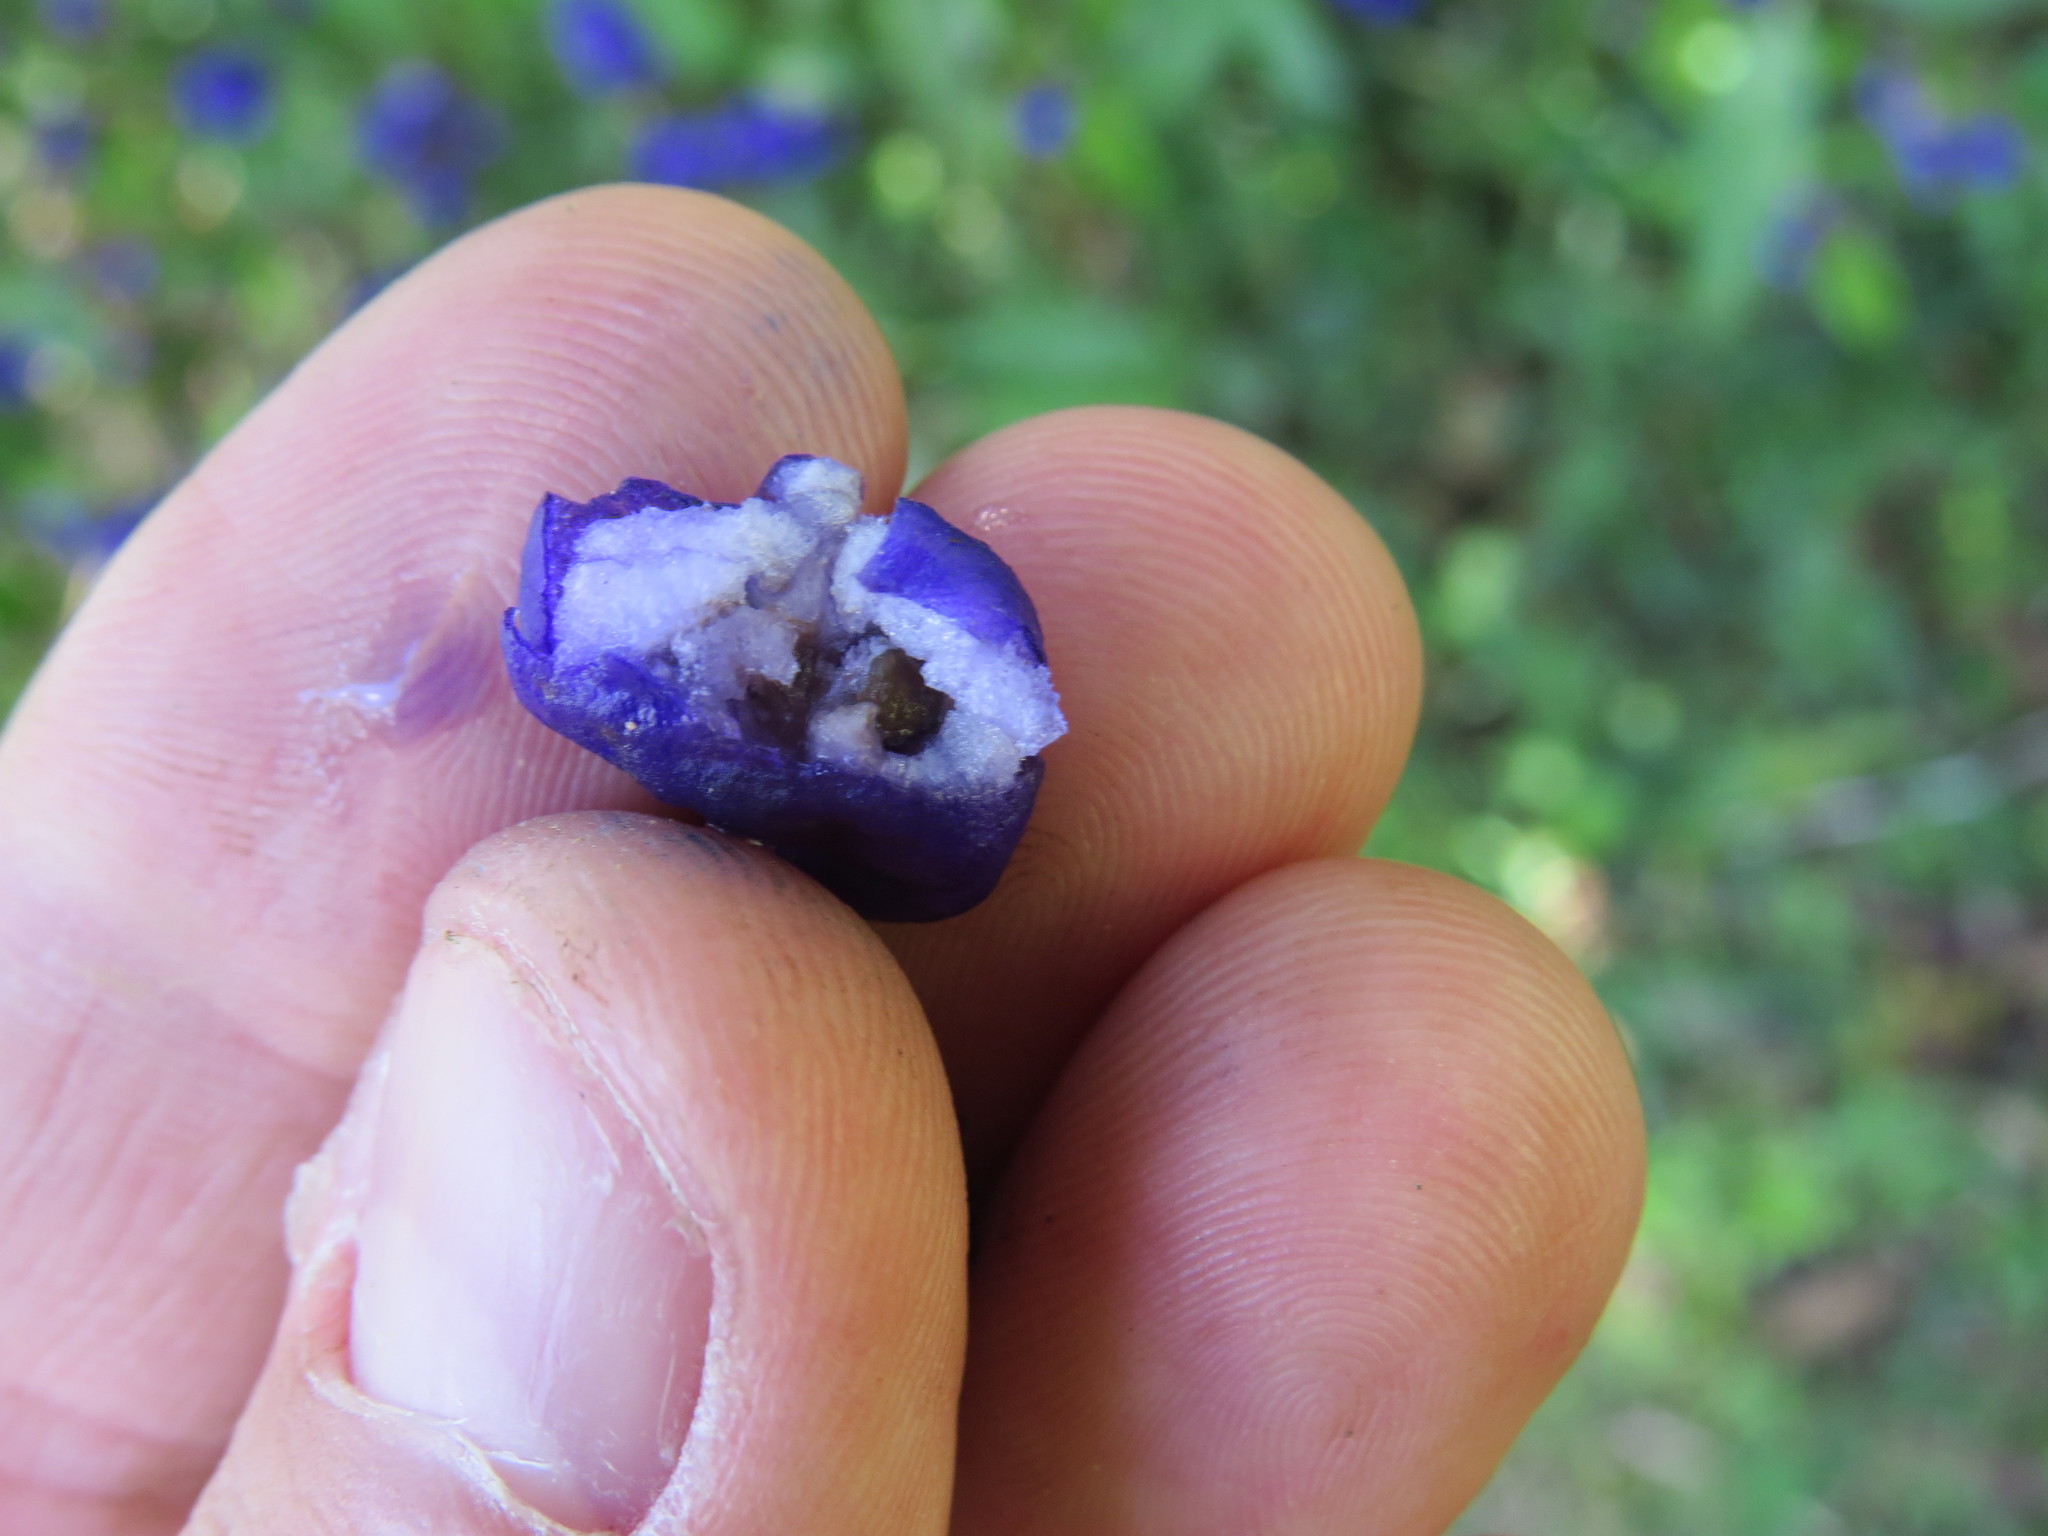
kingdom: Plantae
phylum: Tracheophyta
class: Magnoliopsida
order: Gentianales
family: Rubiaceae
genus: Psychotria
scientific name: Psychotria leiocarpa
